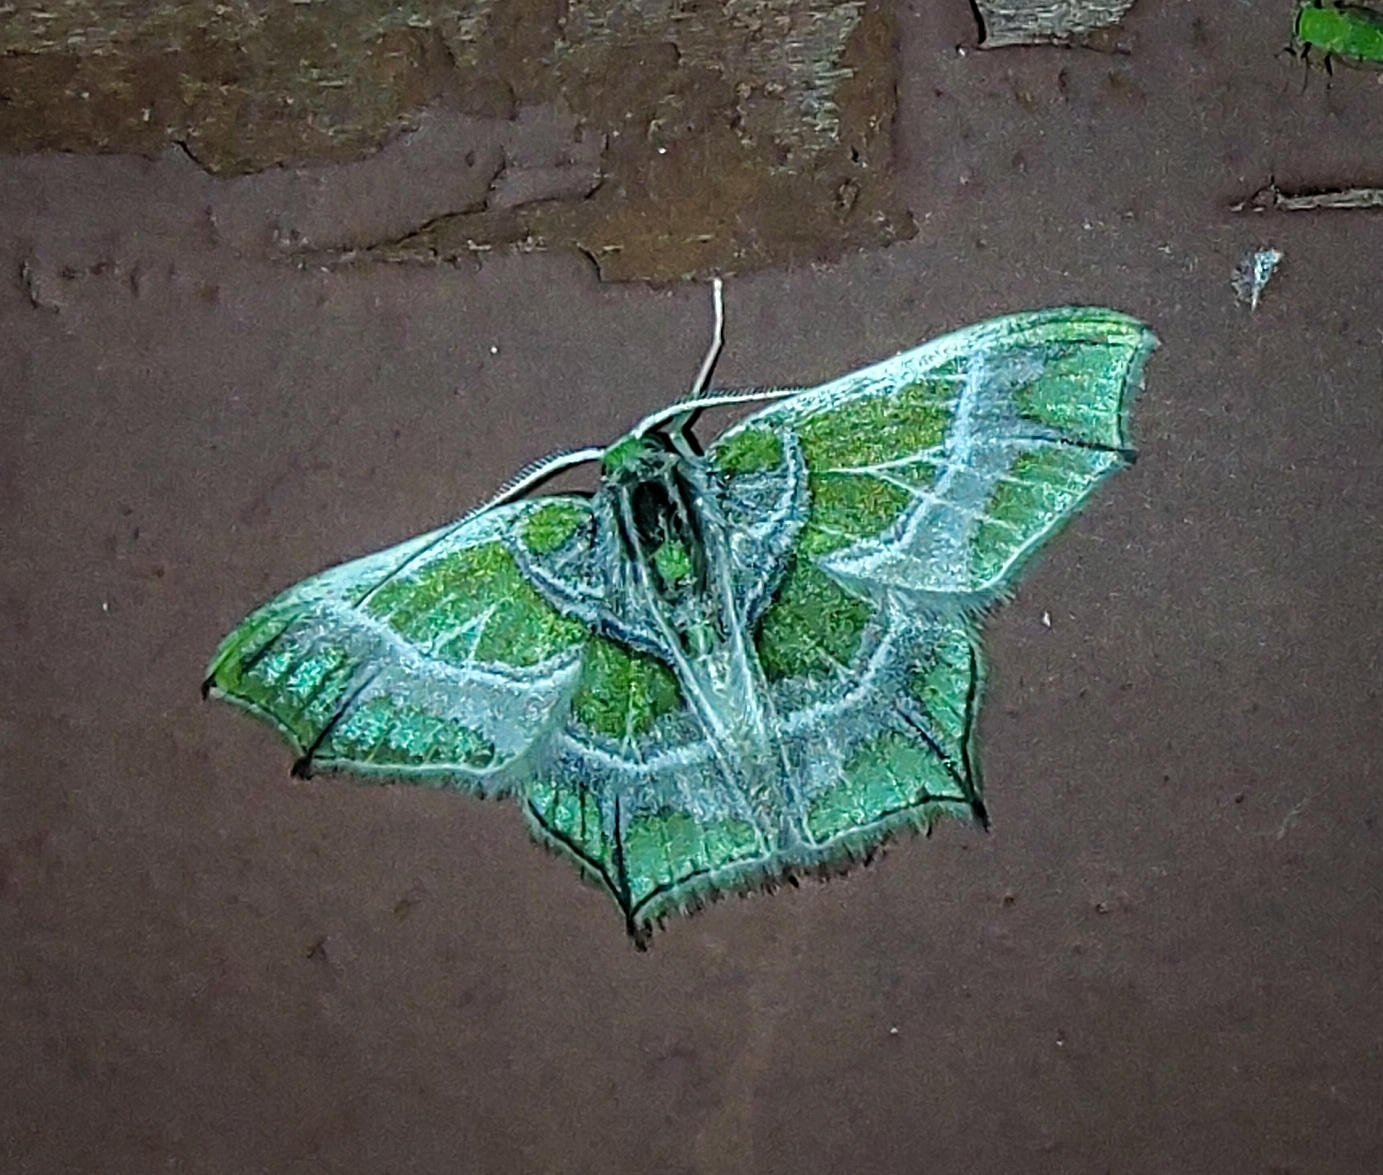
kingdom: Animalia
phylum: Arthropoda
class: Insecta
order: Lepidoptera
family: Geometridae
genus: Chloractis
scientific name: Chloractis pulcherrima
